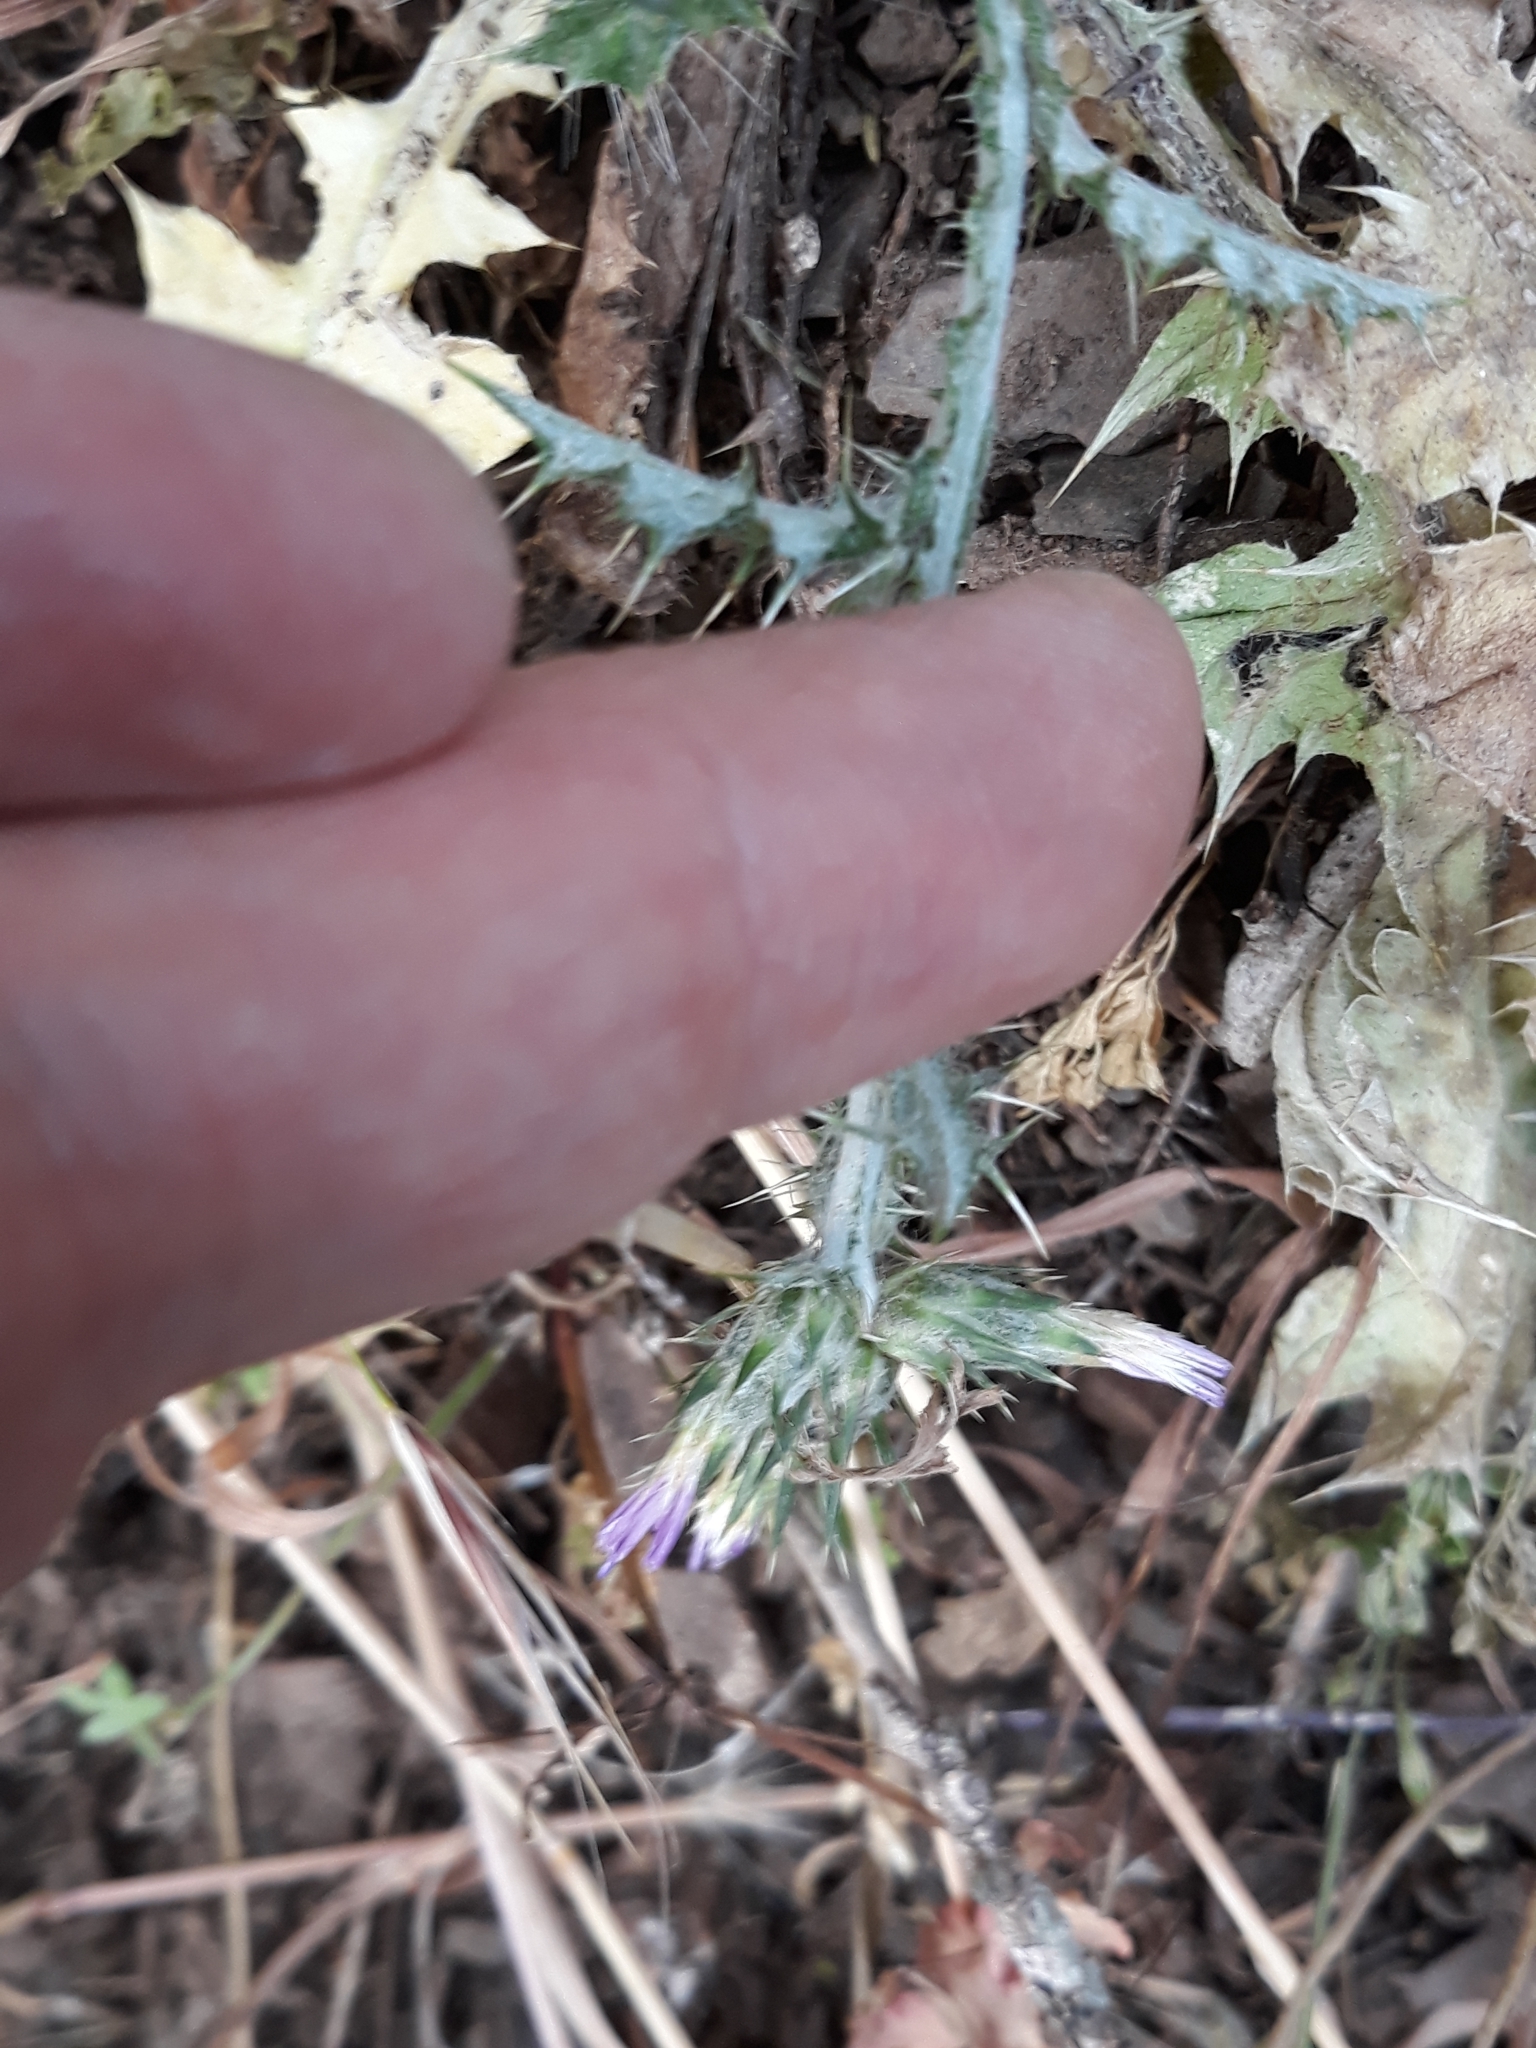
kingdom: Plantae
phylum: Tracheophyta
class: Magnoliopsida
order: Asterales
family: Asteraceae
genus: Carduus
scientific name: Carduus tenuiflorus
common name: Slender thistle
